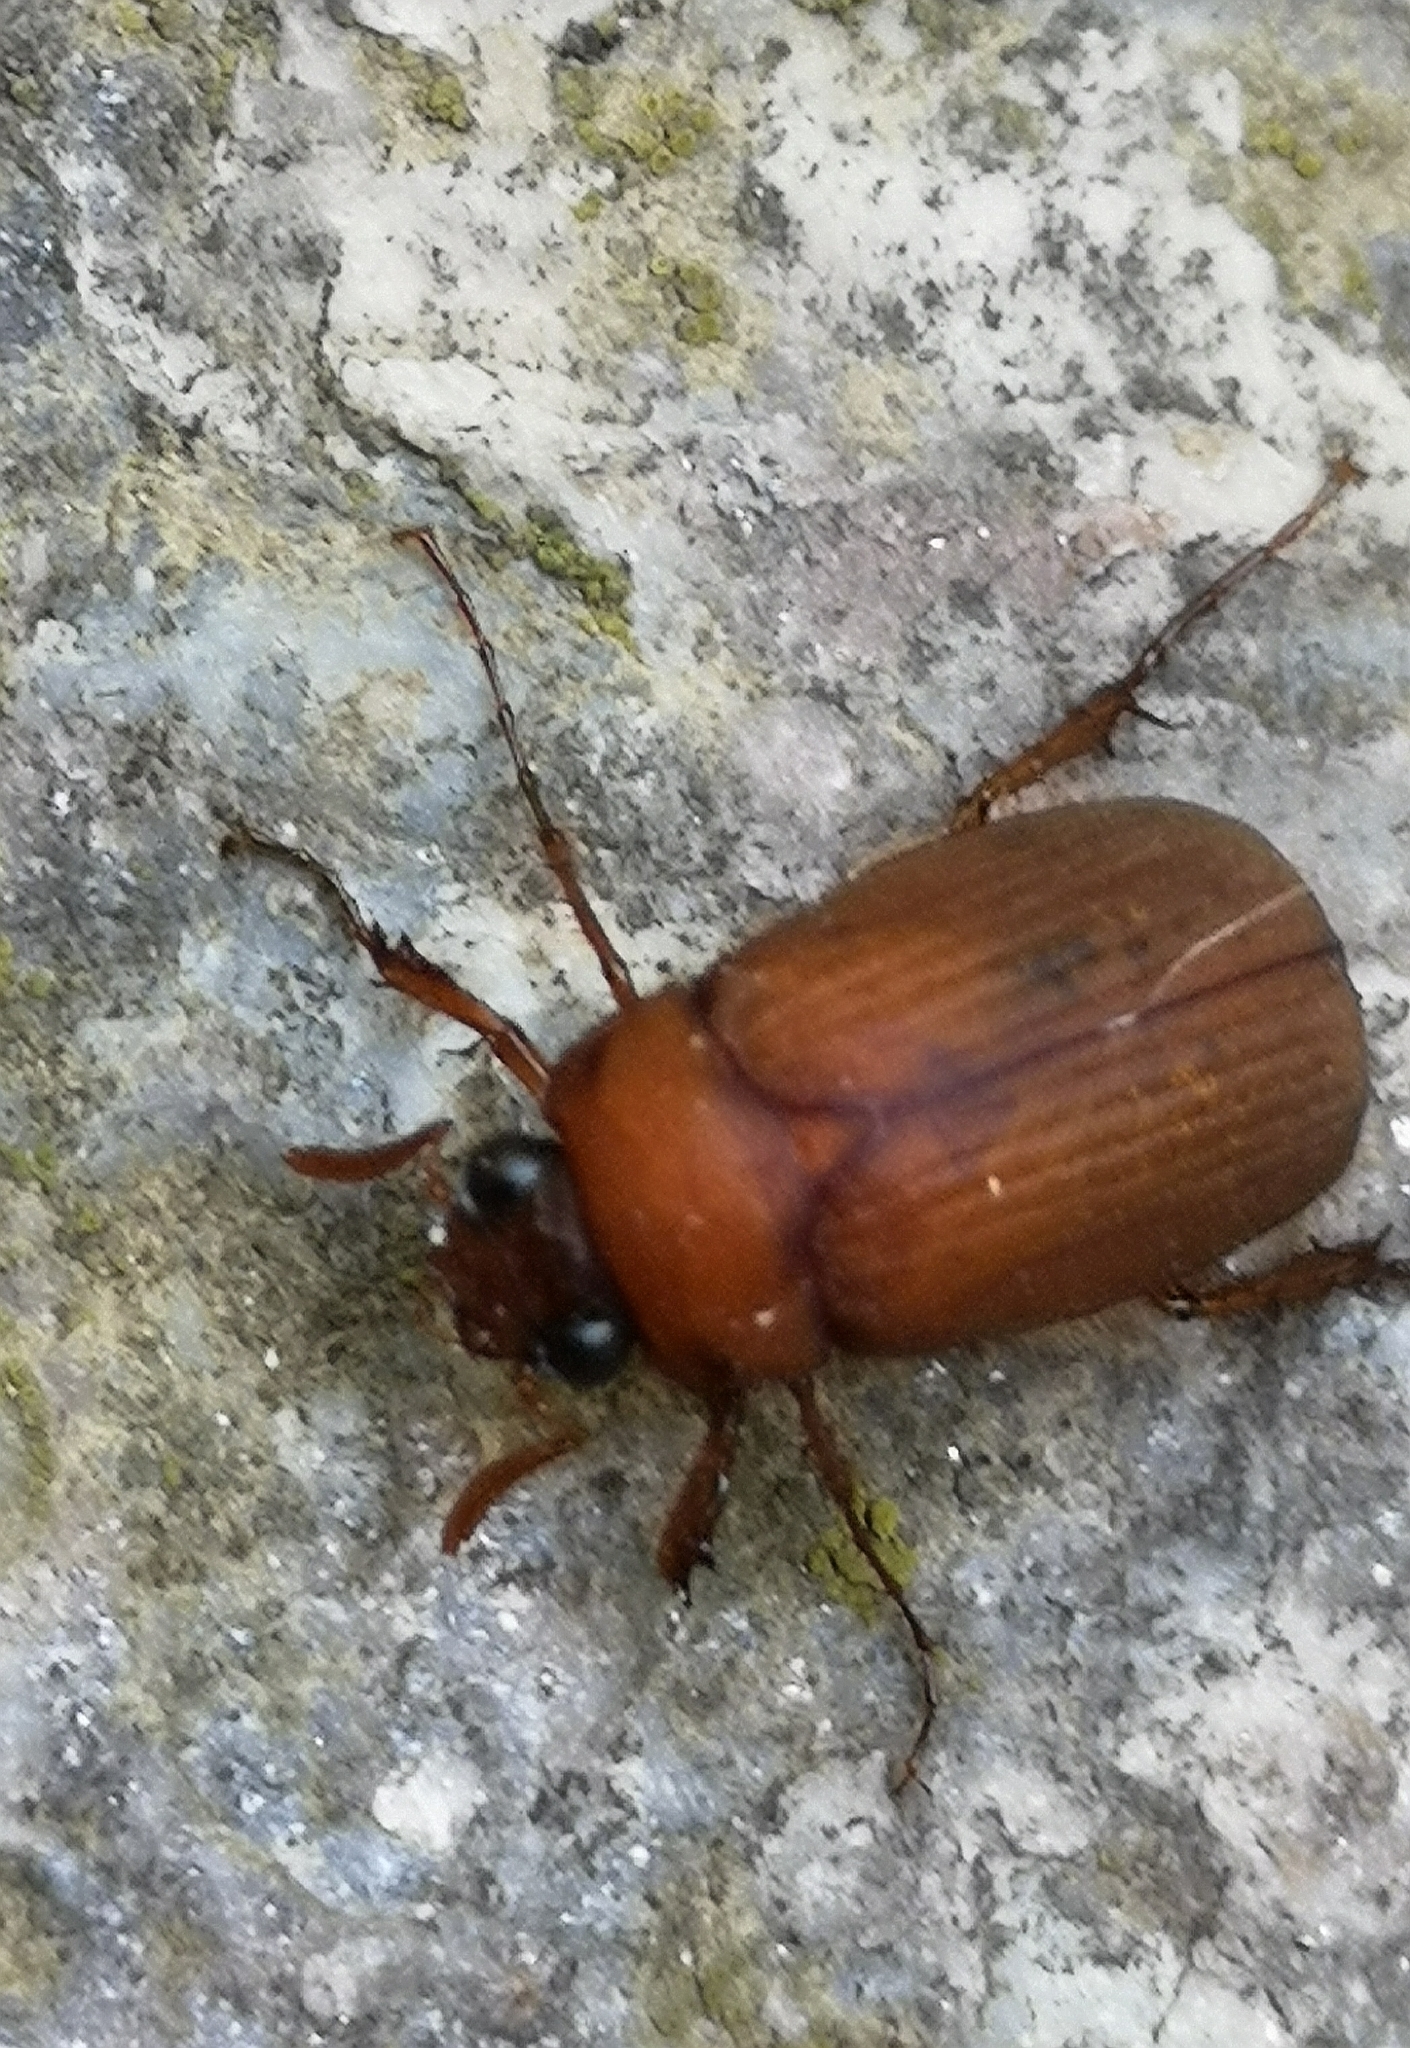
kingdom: Animalia
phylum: Arthropoda
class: Insecta
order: Coleoptera
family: Scarabaeidae
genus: Serica
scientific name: Serica brunnea
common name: Brown chafer
